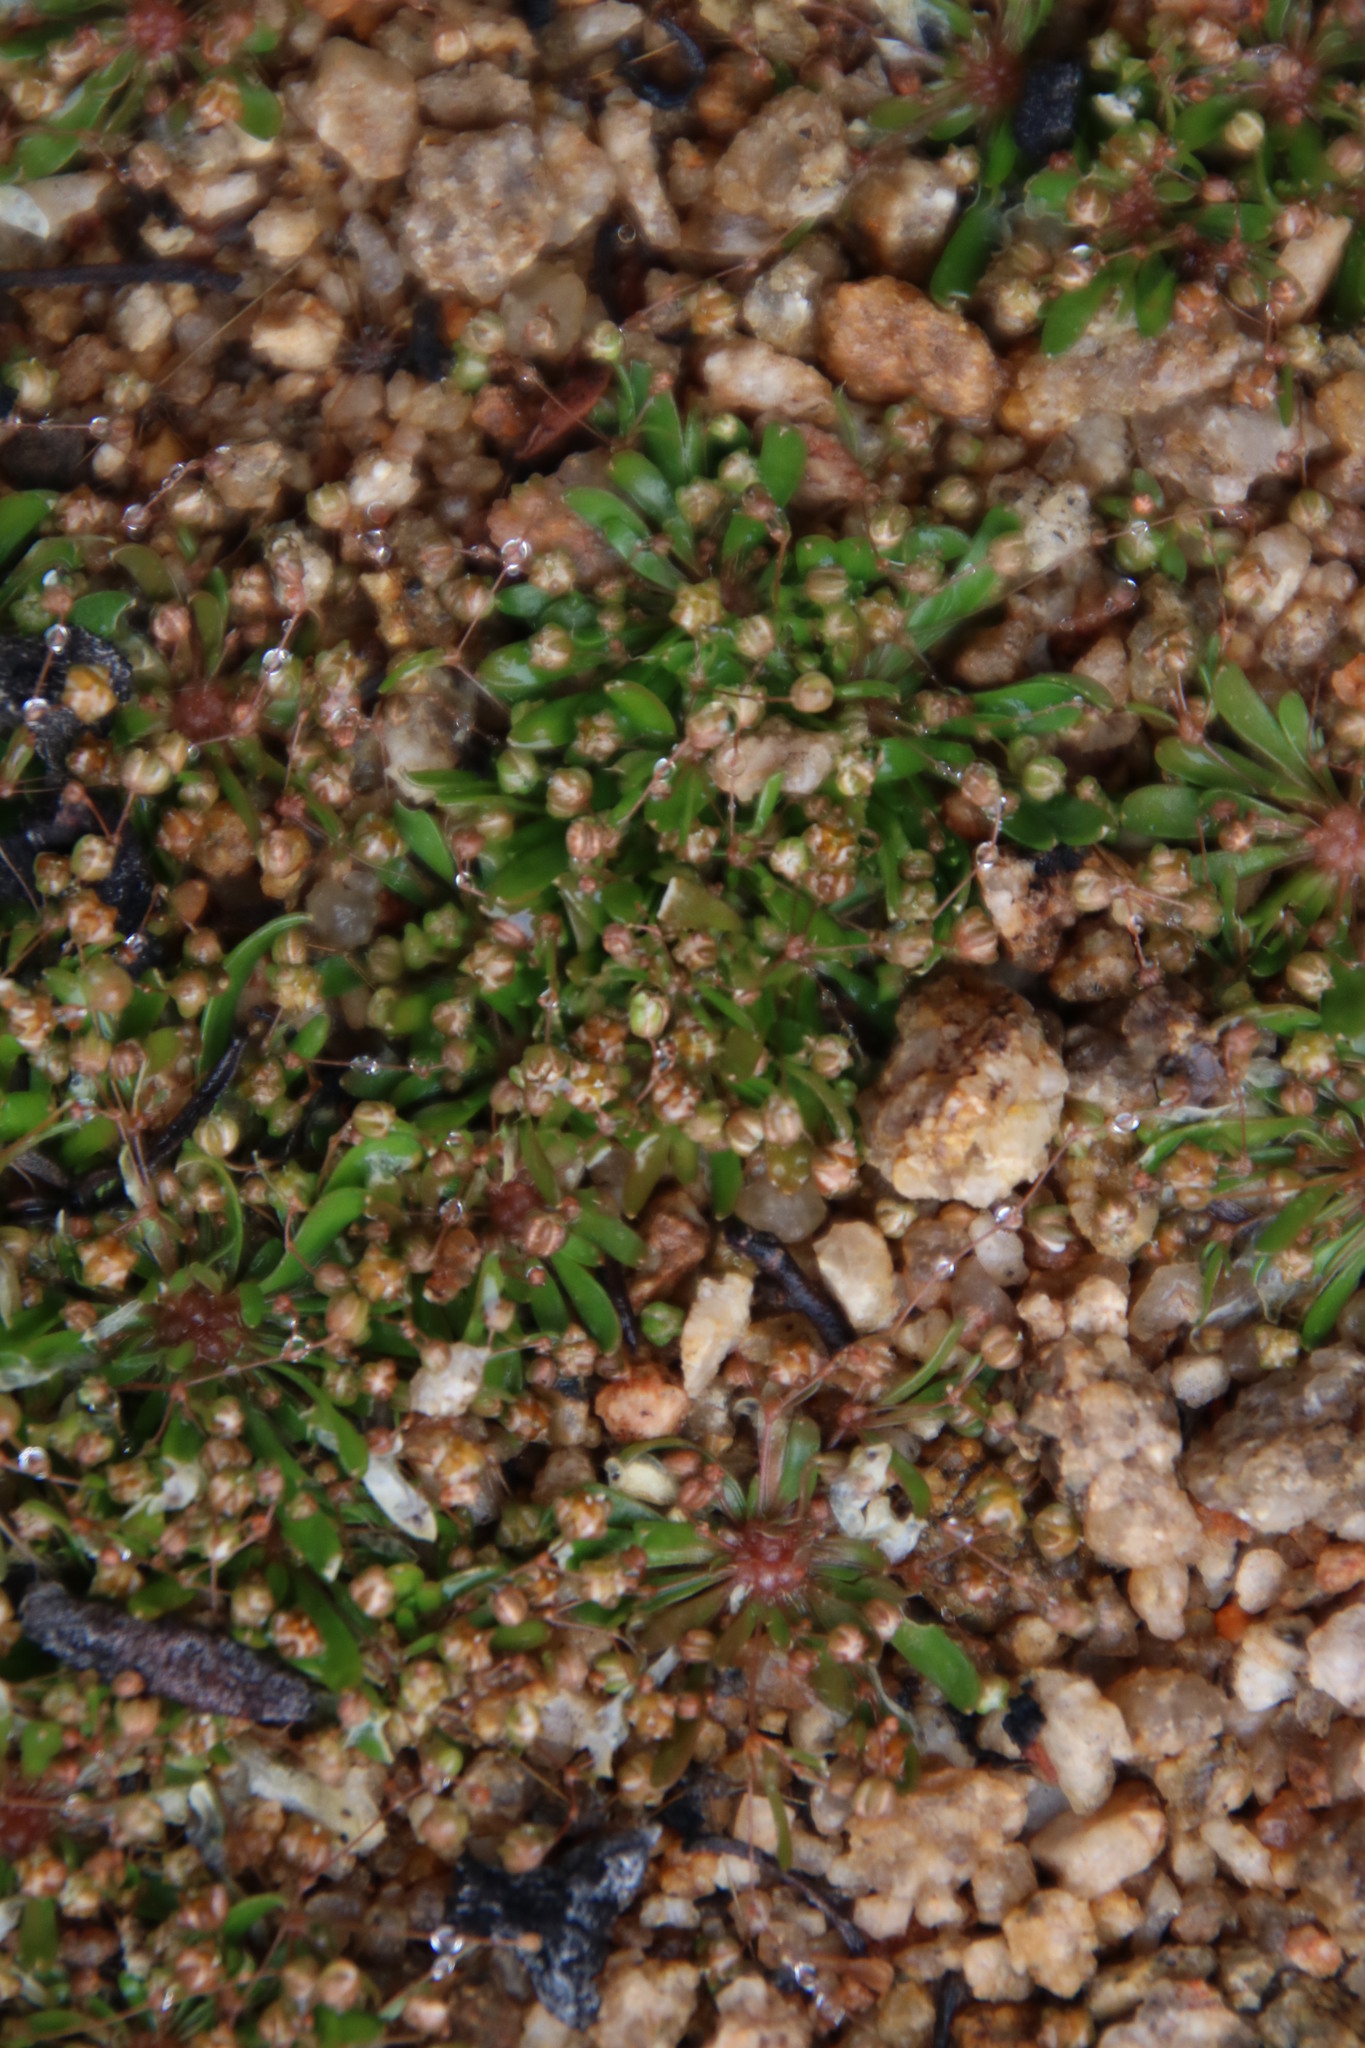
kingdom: Plantae
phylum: Tracheophyta
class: Magnoliopsida
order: Caryophyllales
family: Molluginaceae
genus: Pharnaceum
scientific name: Pharnaceum subtile
